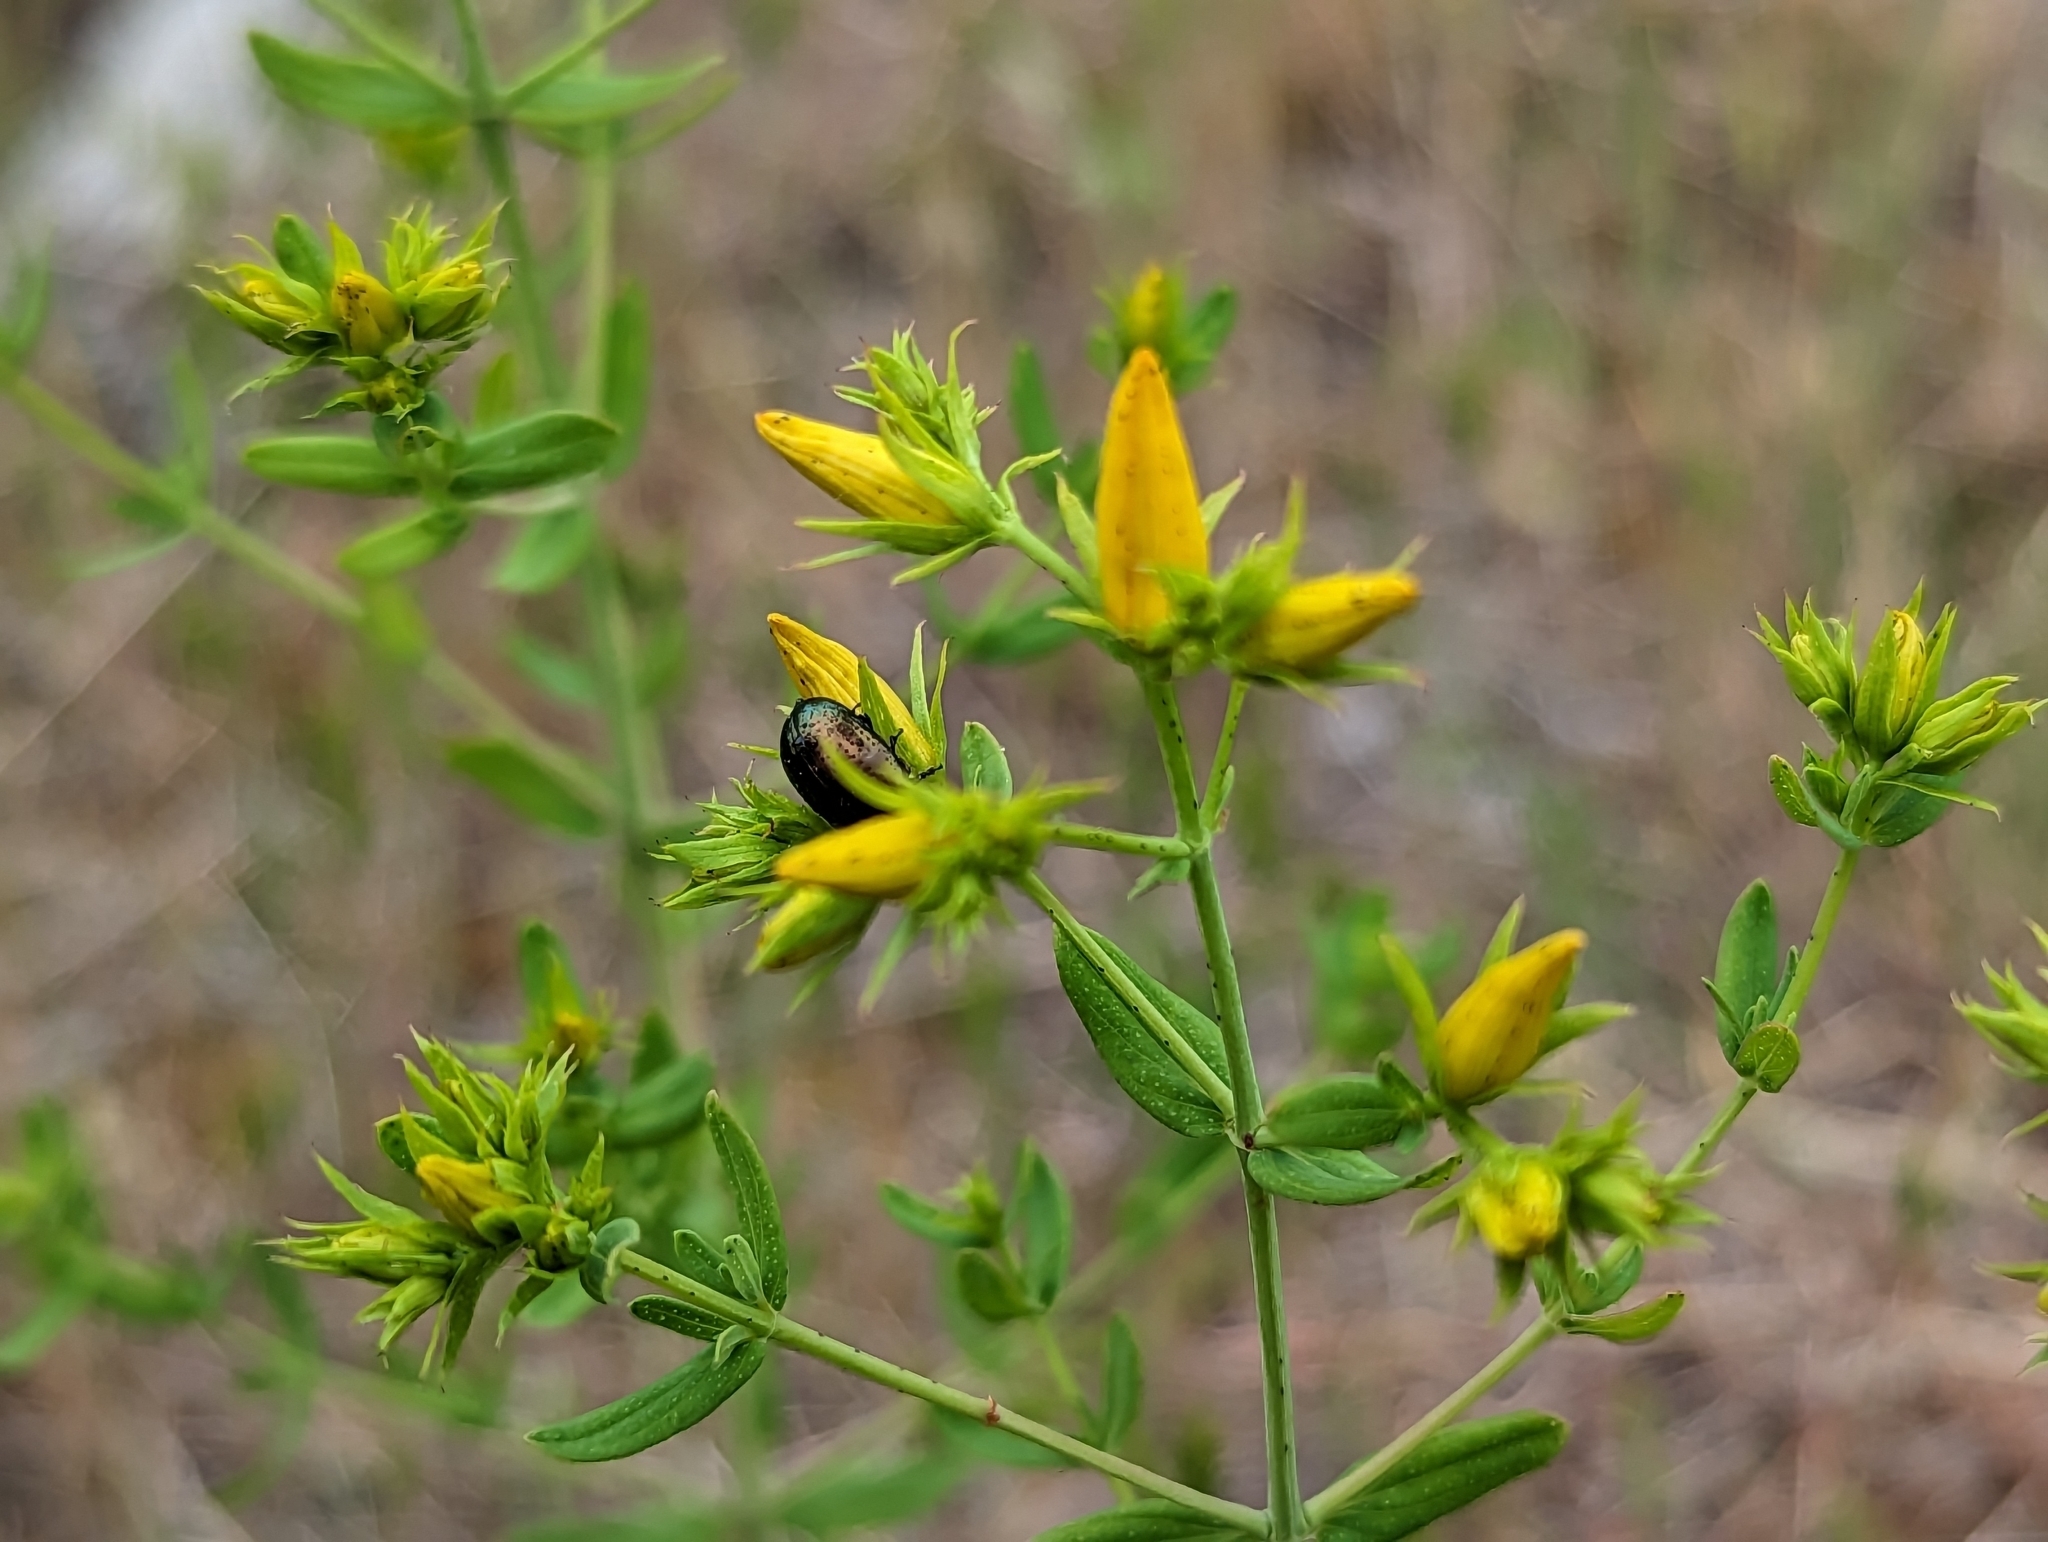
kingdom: Animalia
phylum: Arthropoda
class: Insecta
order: Coleoptera
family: Chrysomelidae
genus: Chrysolina
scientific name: Chrysolina hyperici
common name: St. johnswort beetle
